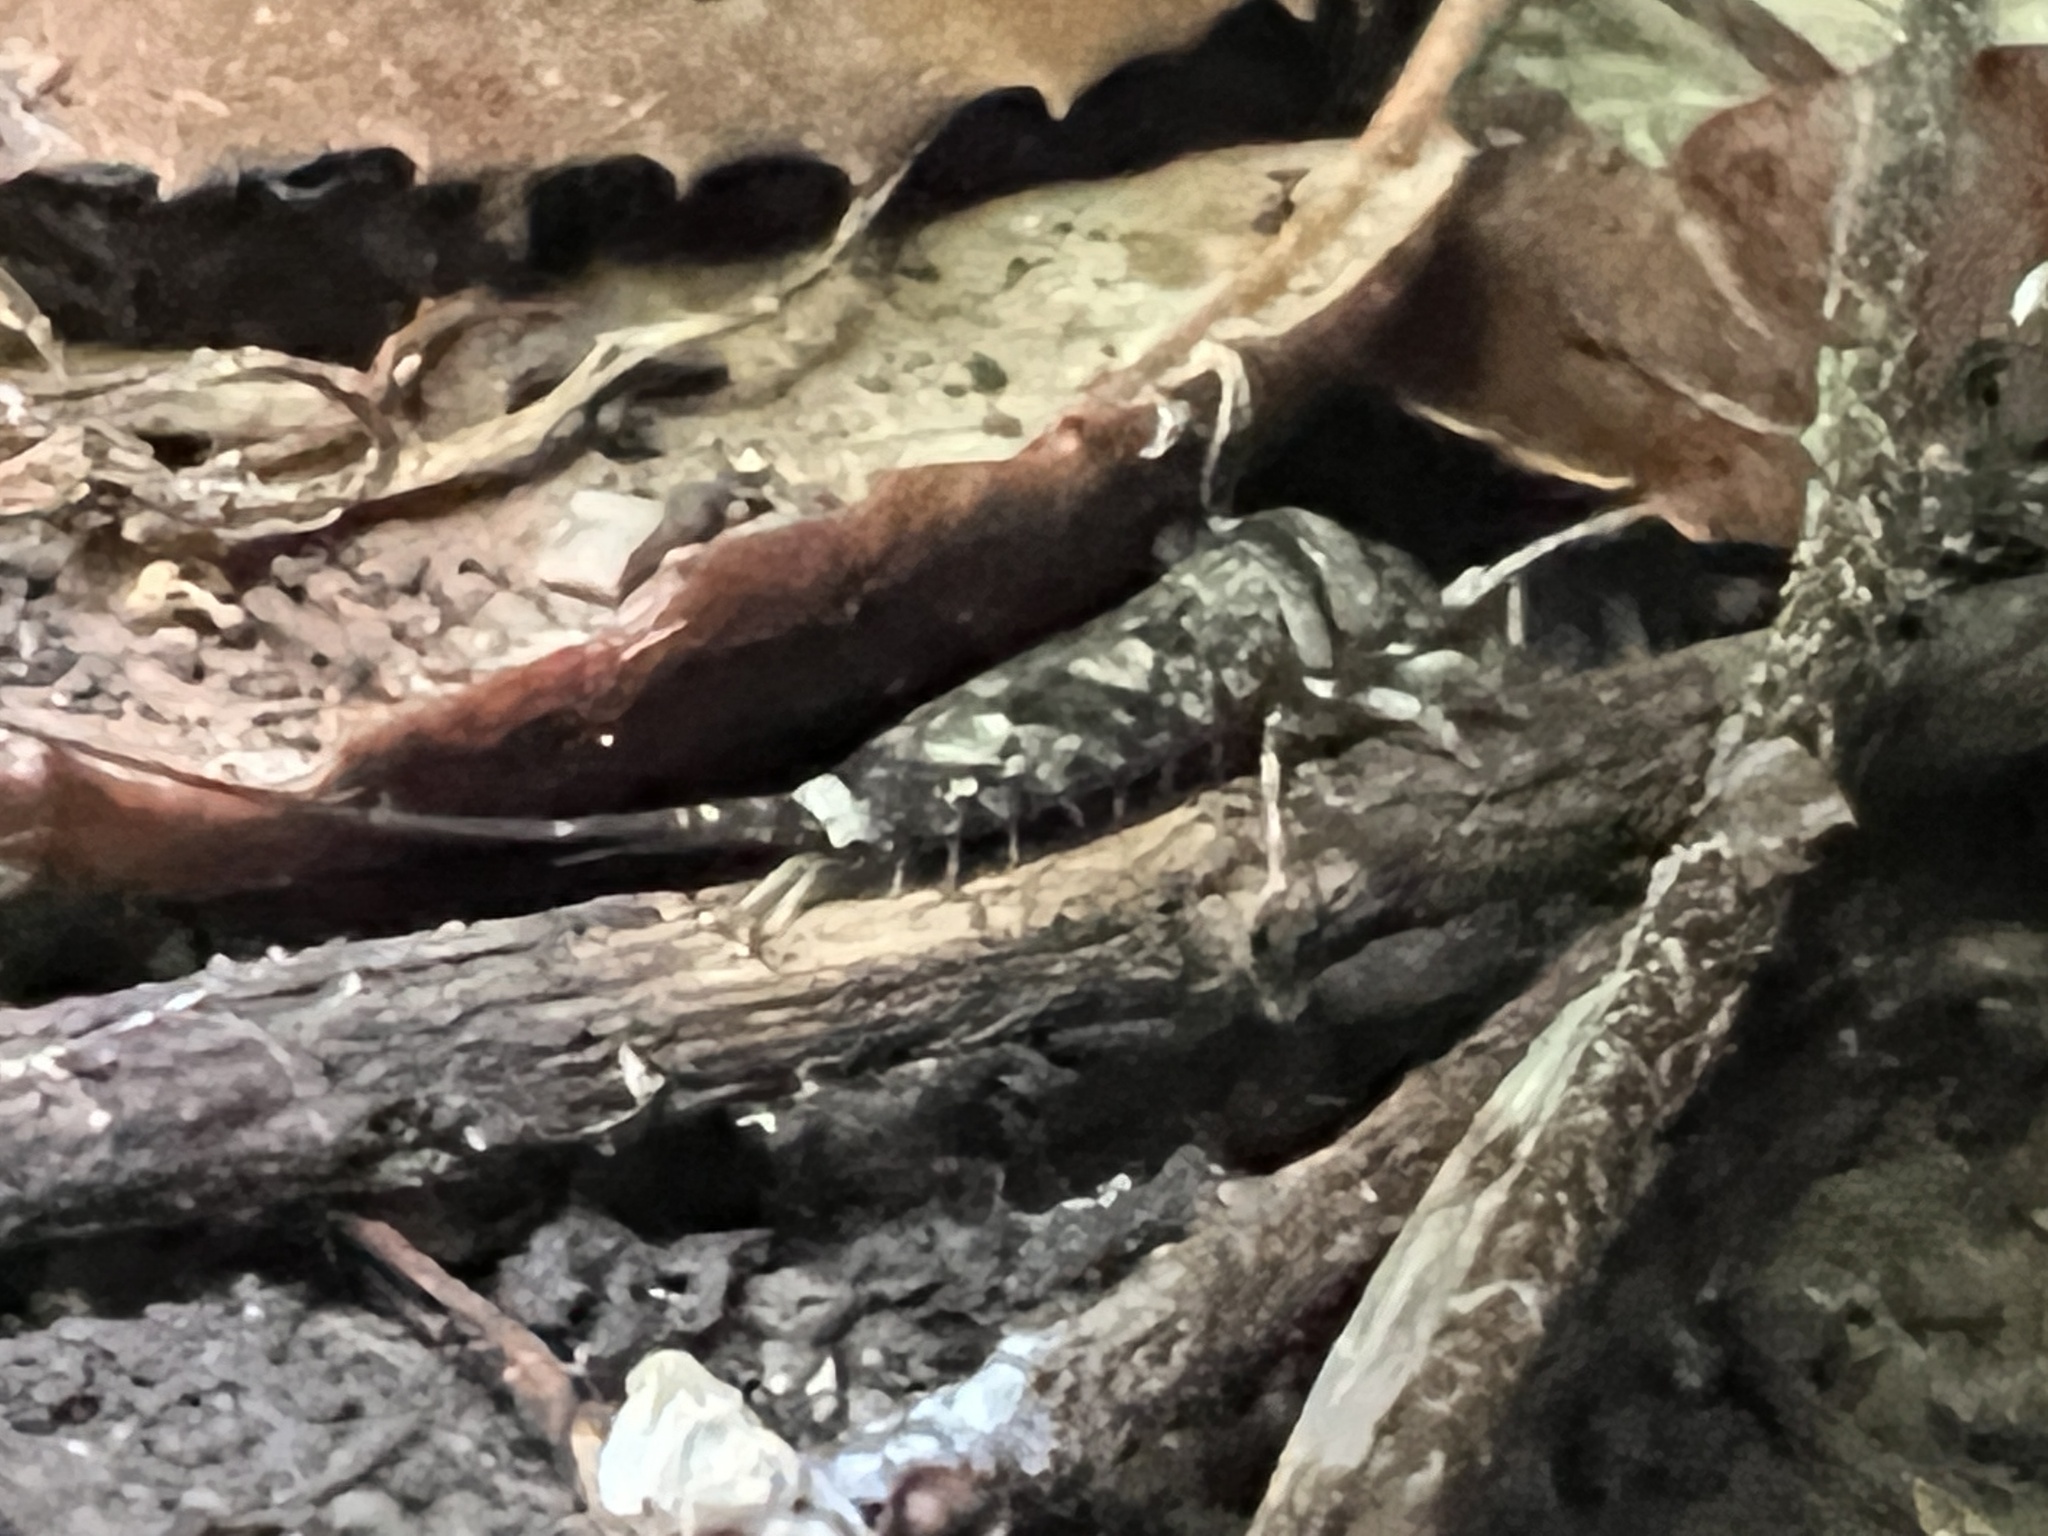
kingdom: Animalia
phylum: Arthropoda
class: Insecta
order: Archaeognatha
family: Machilidae
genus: Trigoniophthalmus
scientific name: Trigoniophthalmus alternatus
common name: Jumping bristletail
